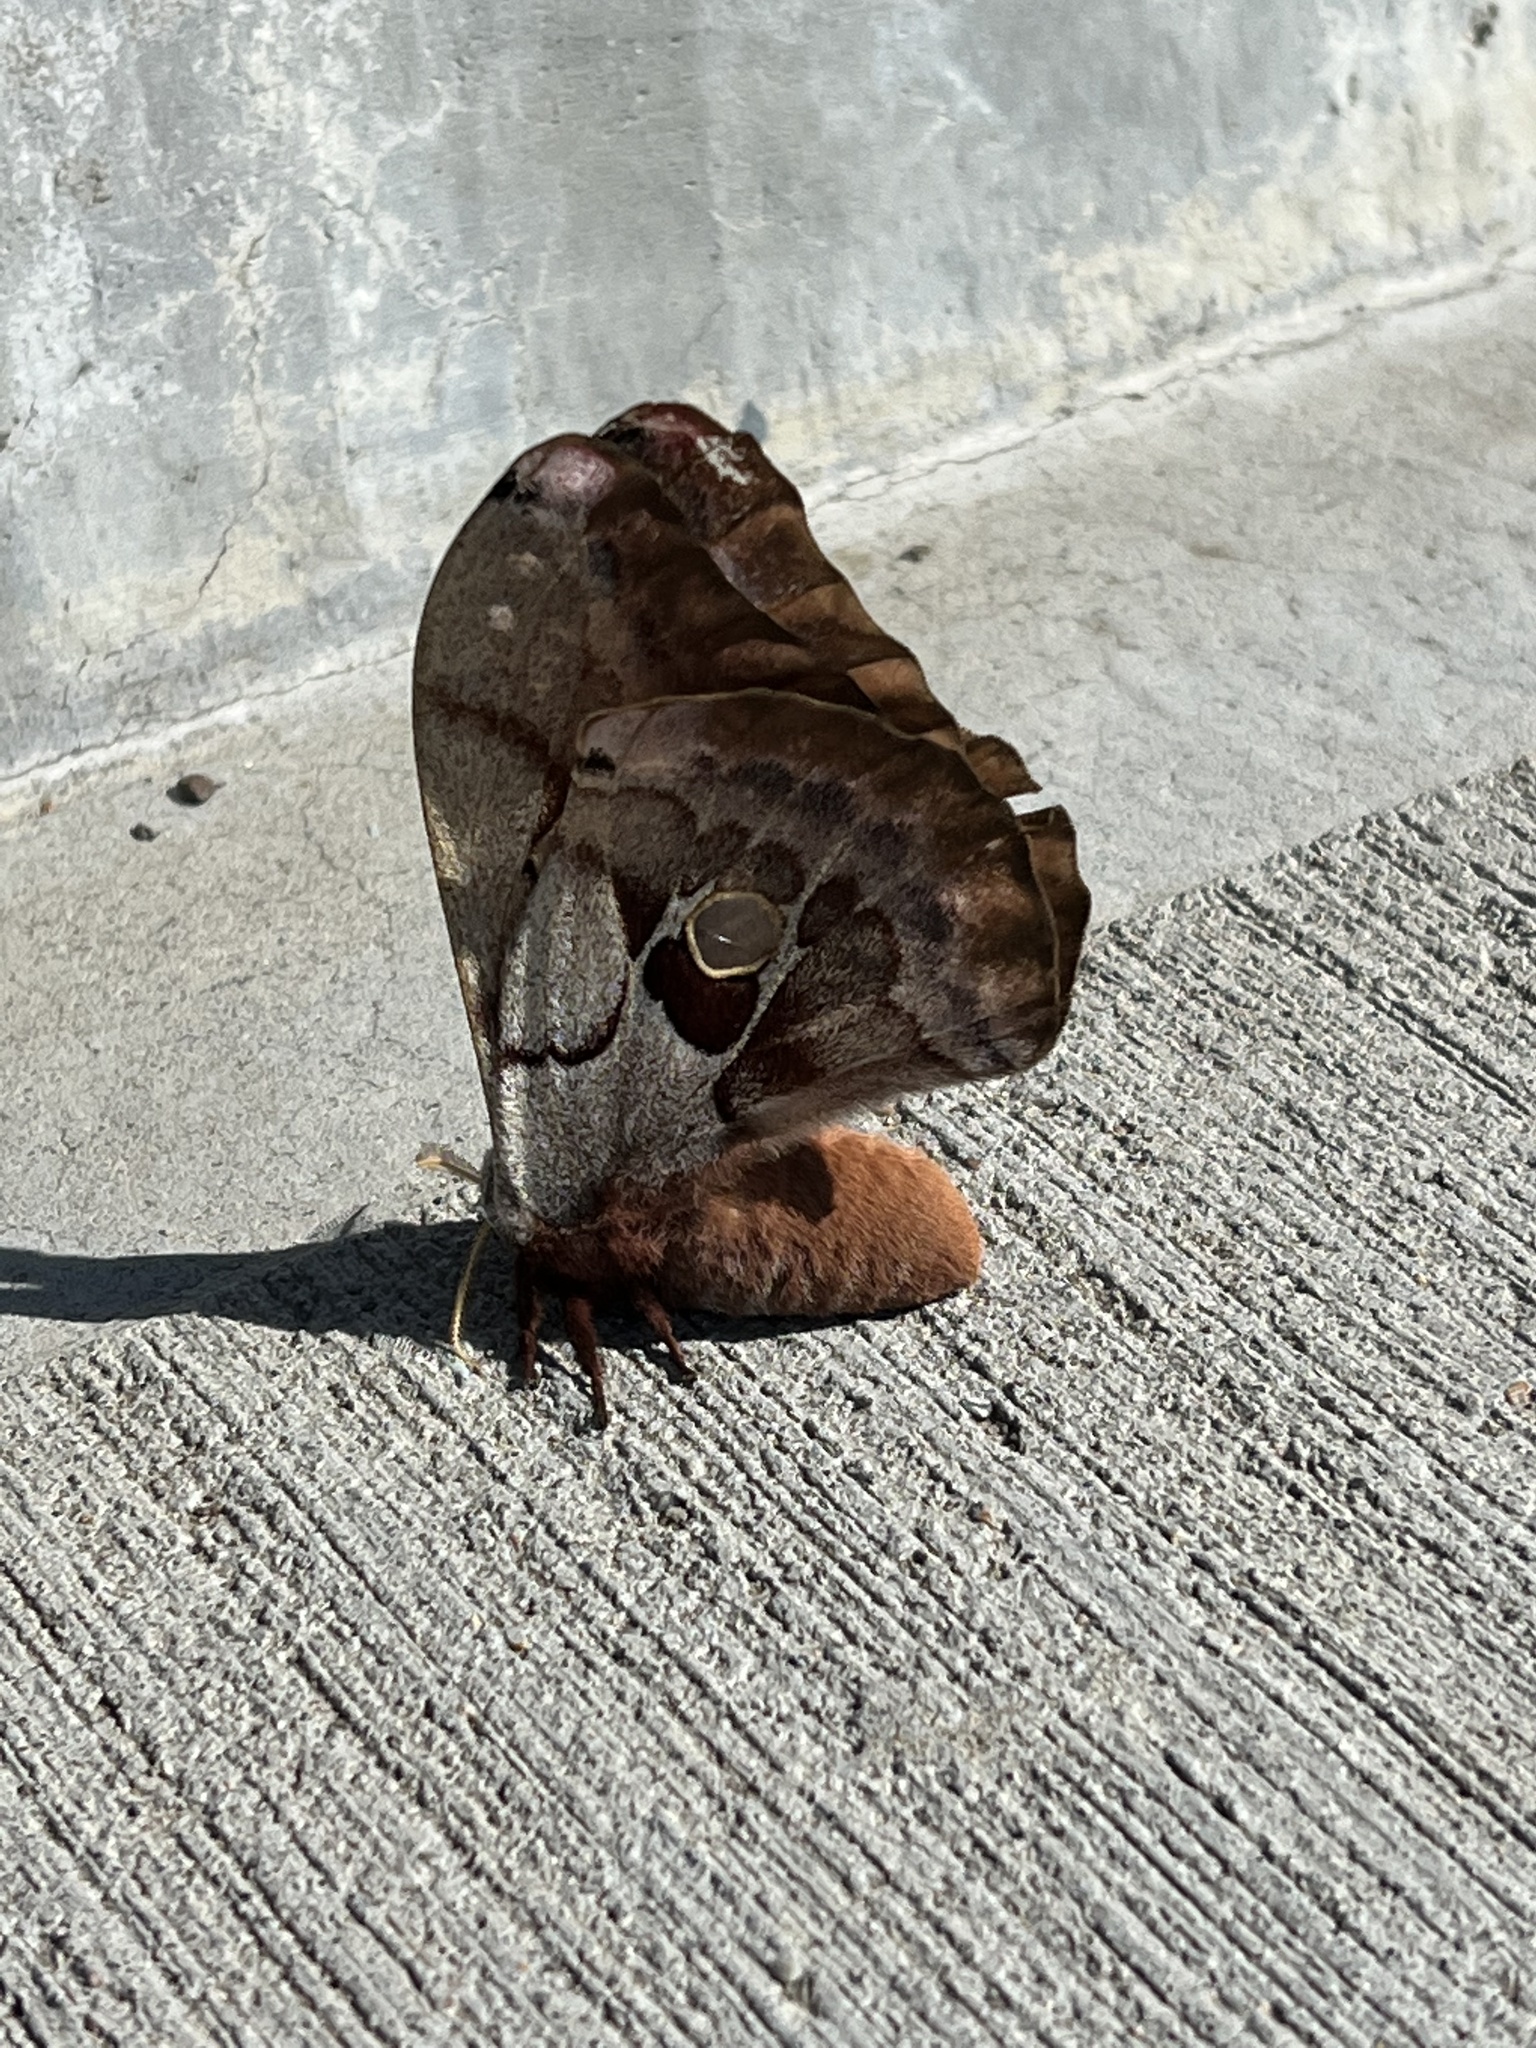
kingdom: Animalia
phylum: Arthropoda
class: Insecta
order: Lepidoptera
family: Saturniidae
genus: Antheraea
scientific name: Antheraea polyphemus
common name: Polyphemus moth
